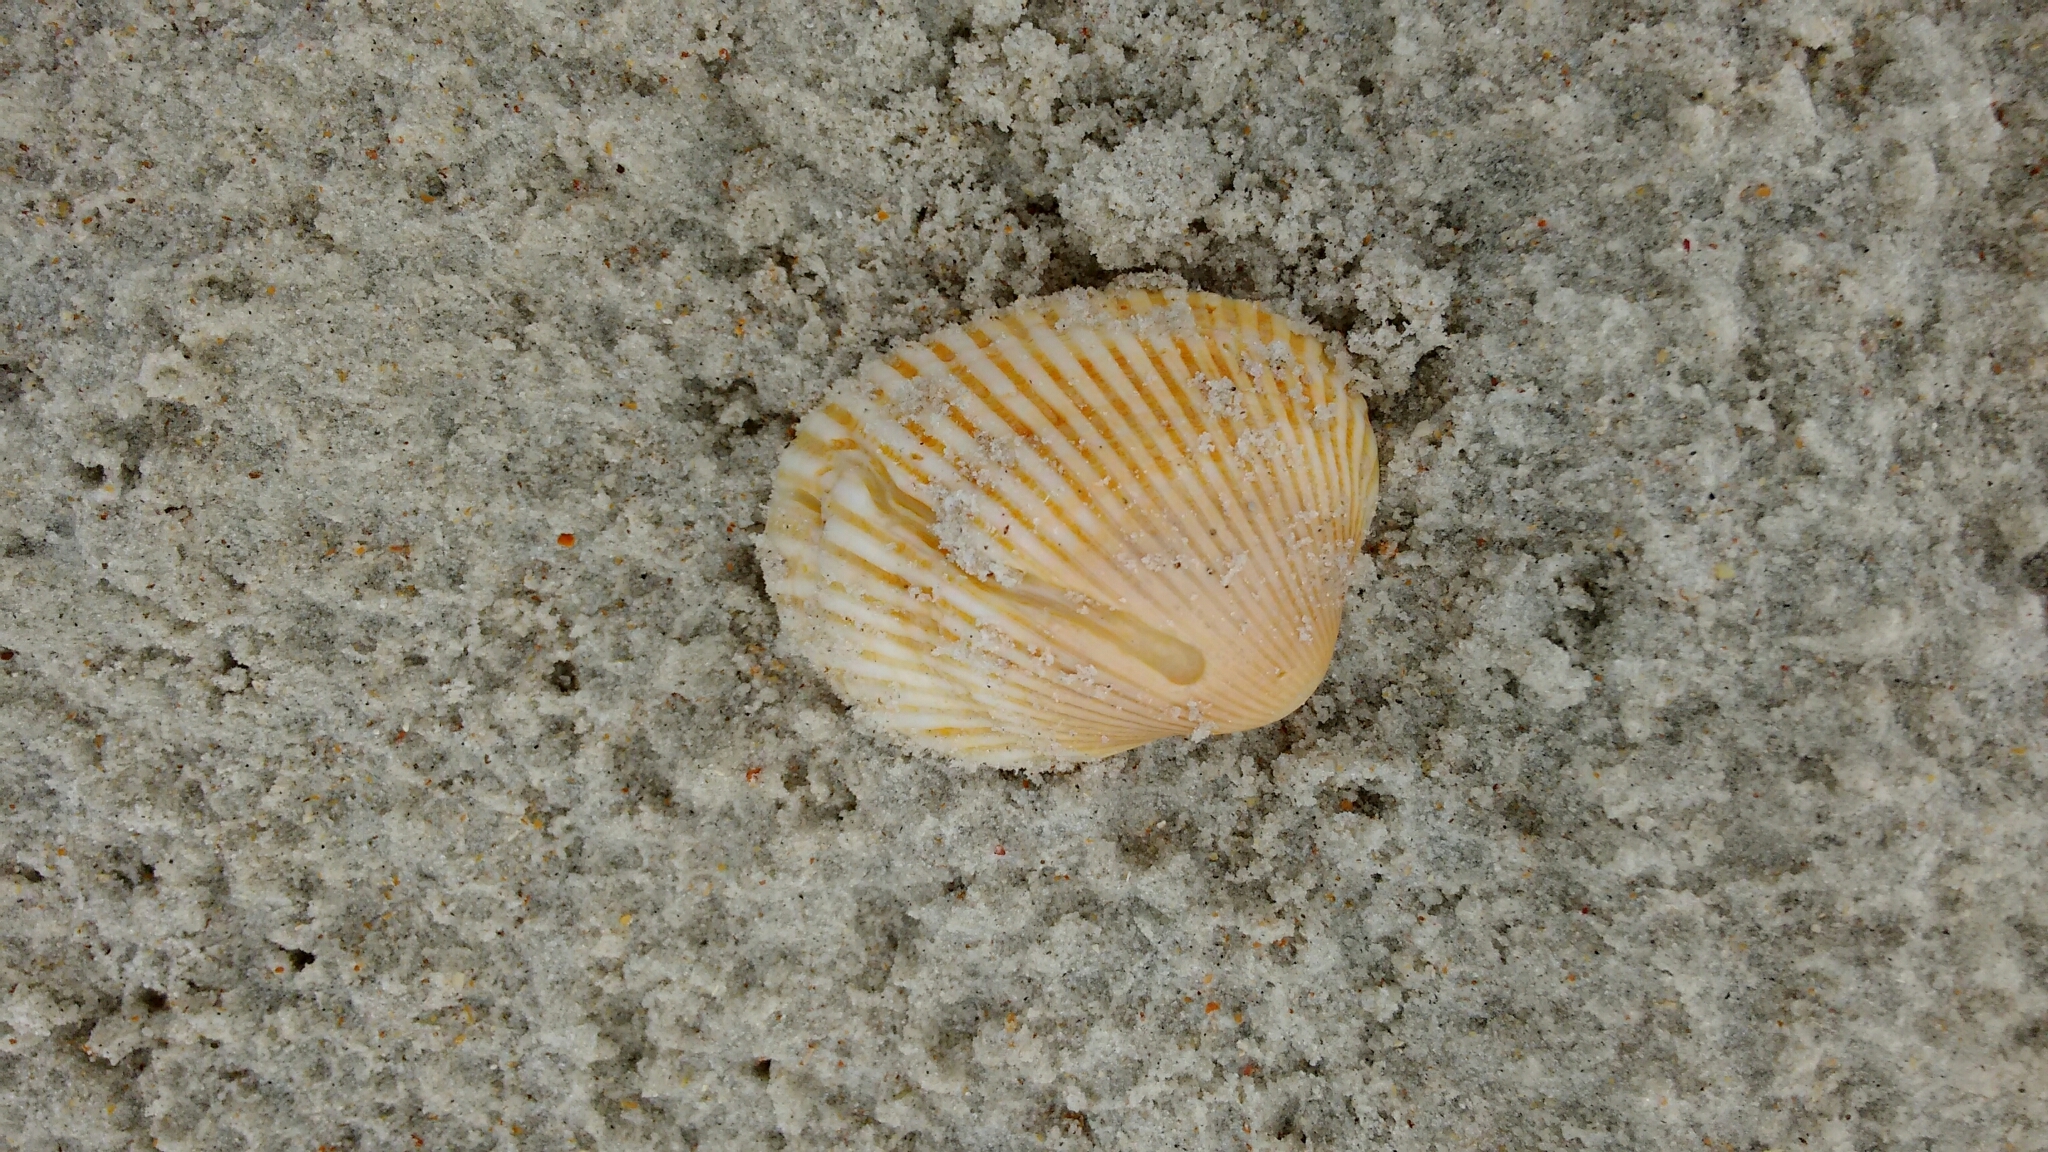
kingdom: Animalia
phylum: Mollusca
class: Bivalvia
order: Arcida
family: Arcidae
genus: Lunarca
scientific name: Lunarca ovalis
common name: Blood ark
